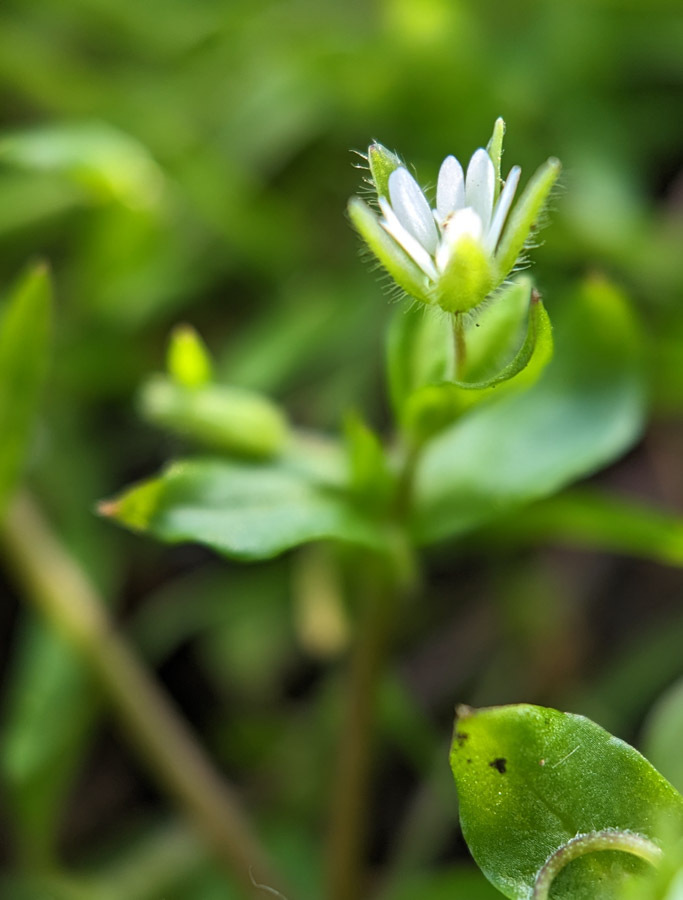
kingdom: Plantae
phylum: Tracheophyta
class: Magnoliopsida
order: Caryophyllales
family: Caryophyllaceae
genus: Stellaria
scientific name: Stellaria media
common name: Common chickweed
